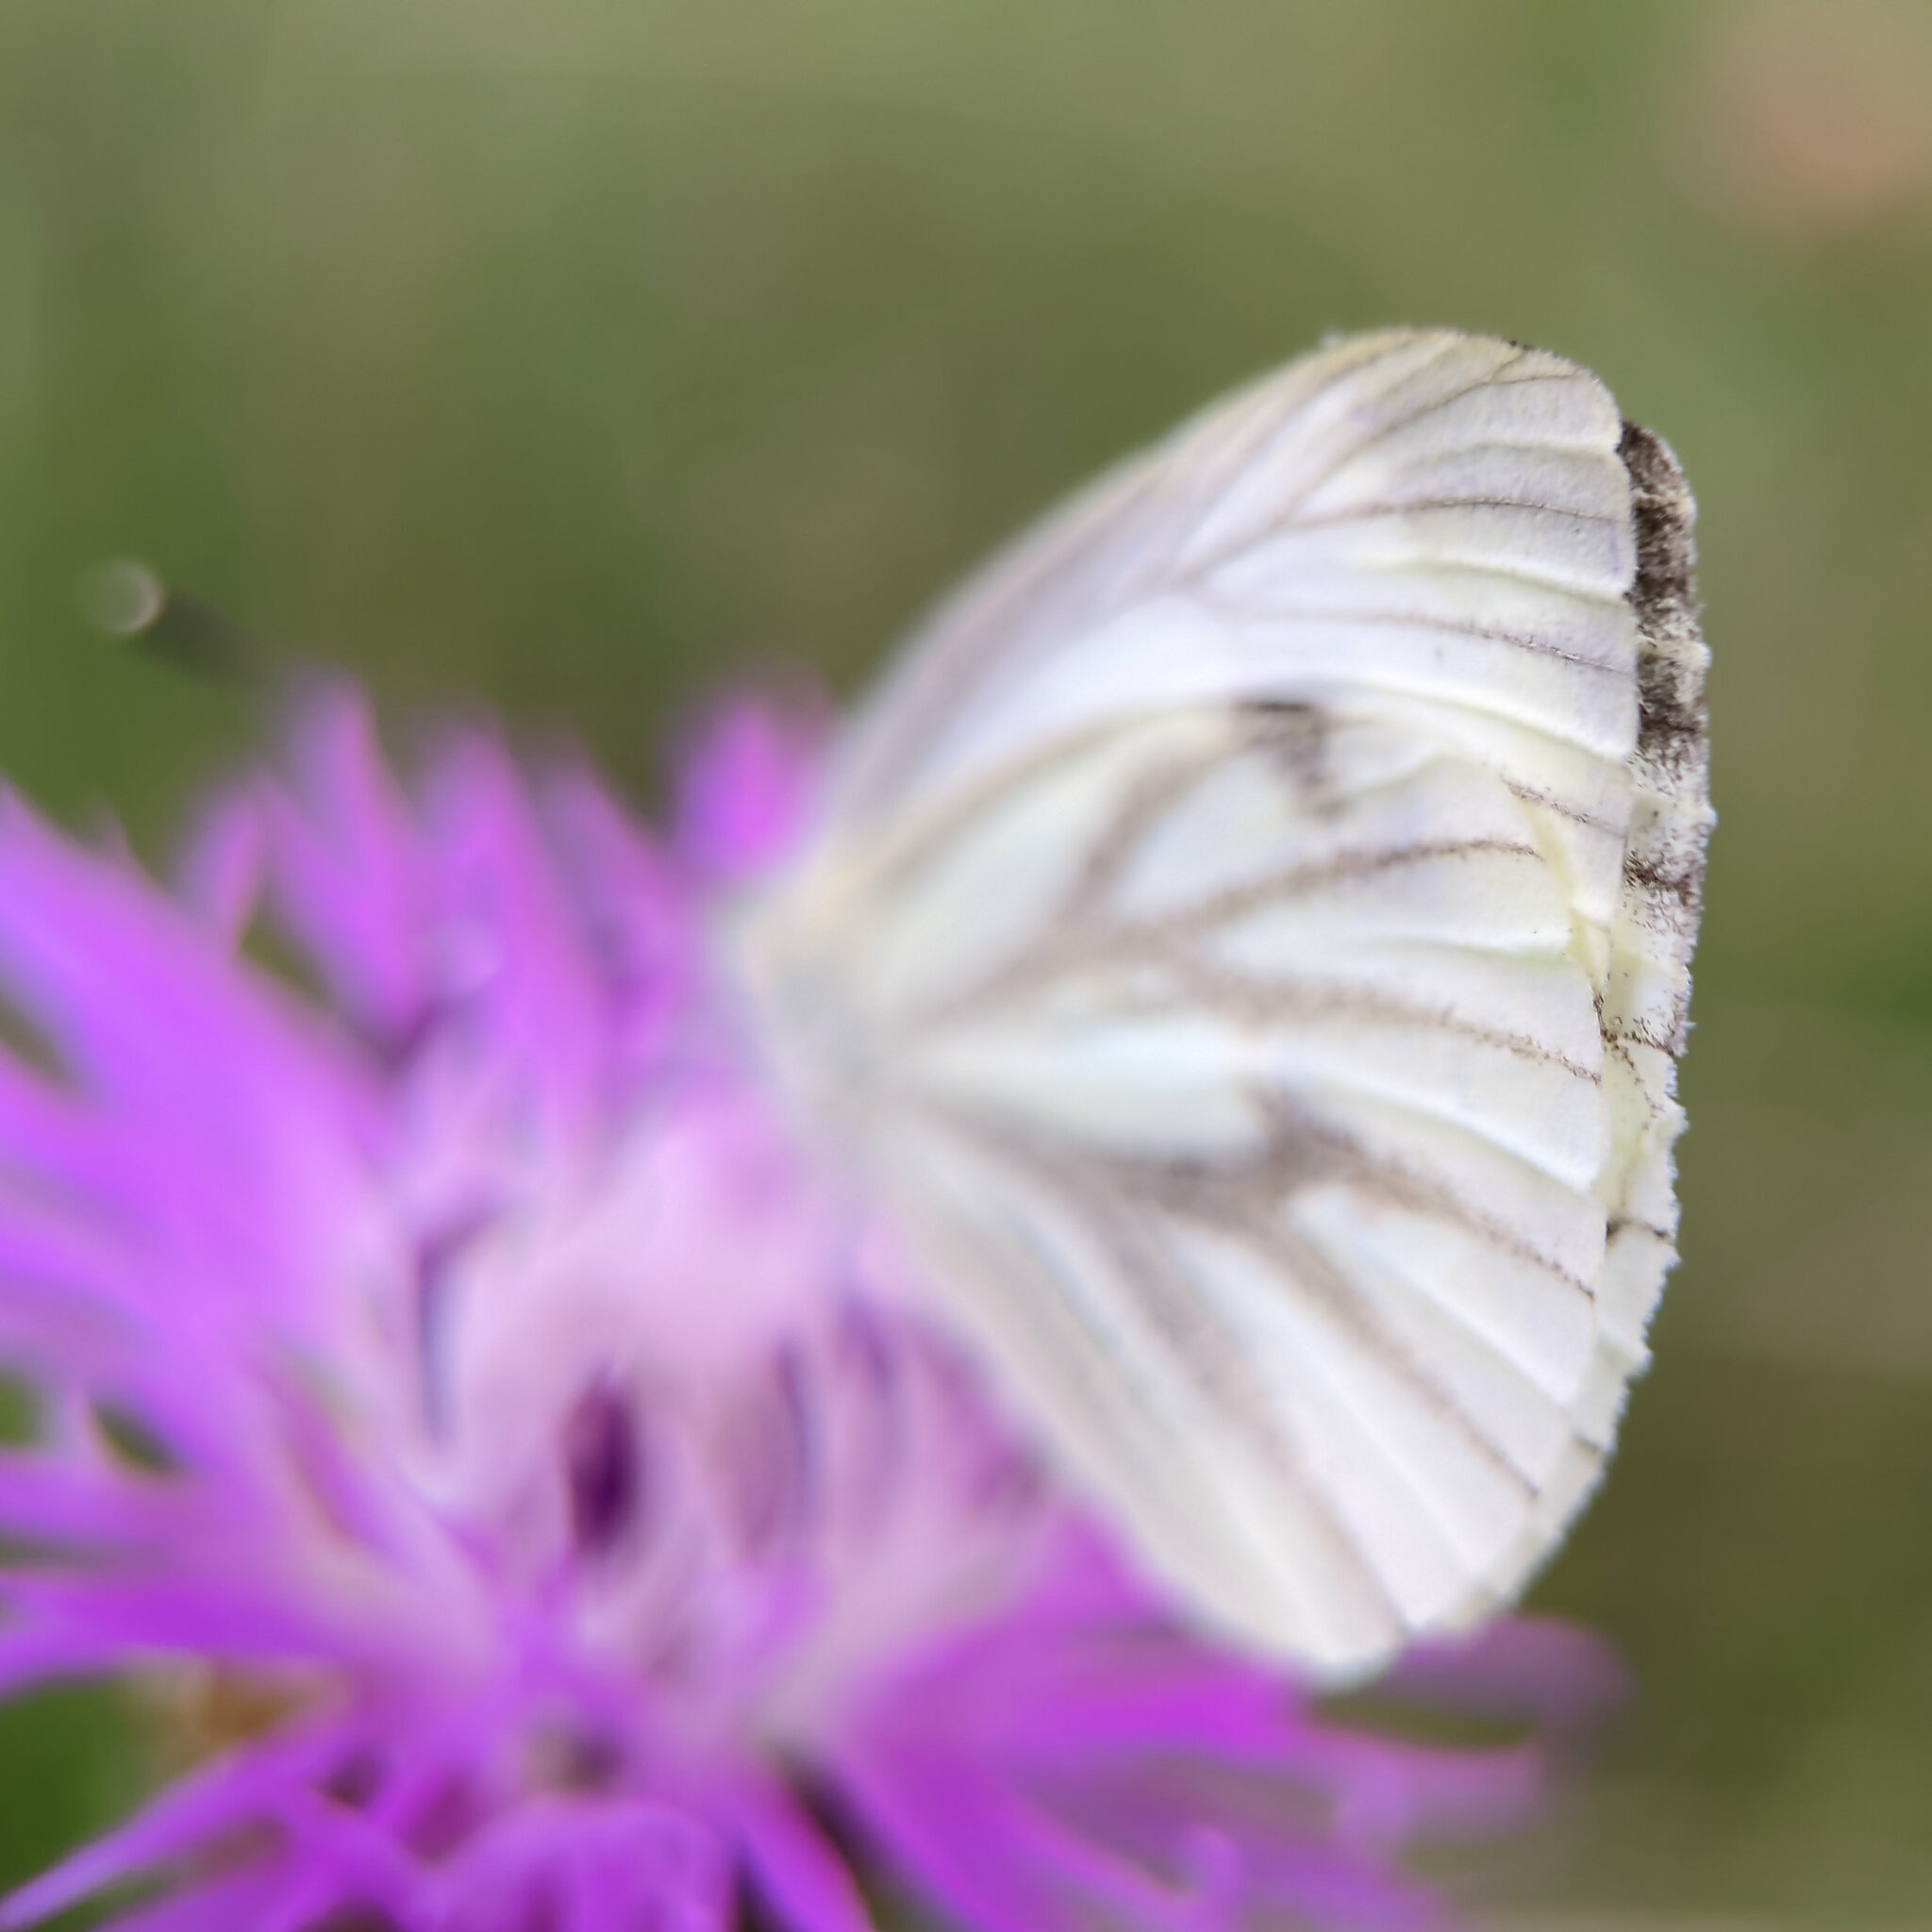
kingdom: Animalia
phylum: Arthropoda
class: Insecta
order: Lepidoptera
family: Pieridae
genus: Pieris
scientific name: Pieris napi
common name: Green-veined white
